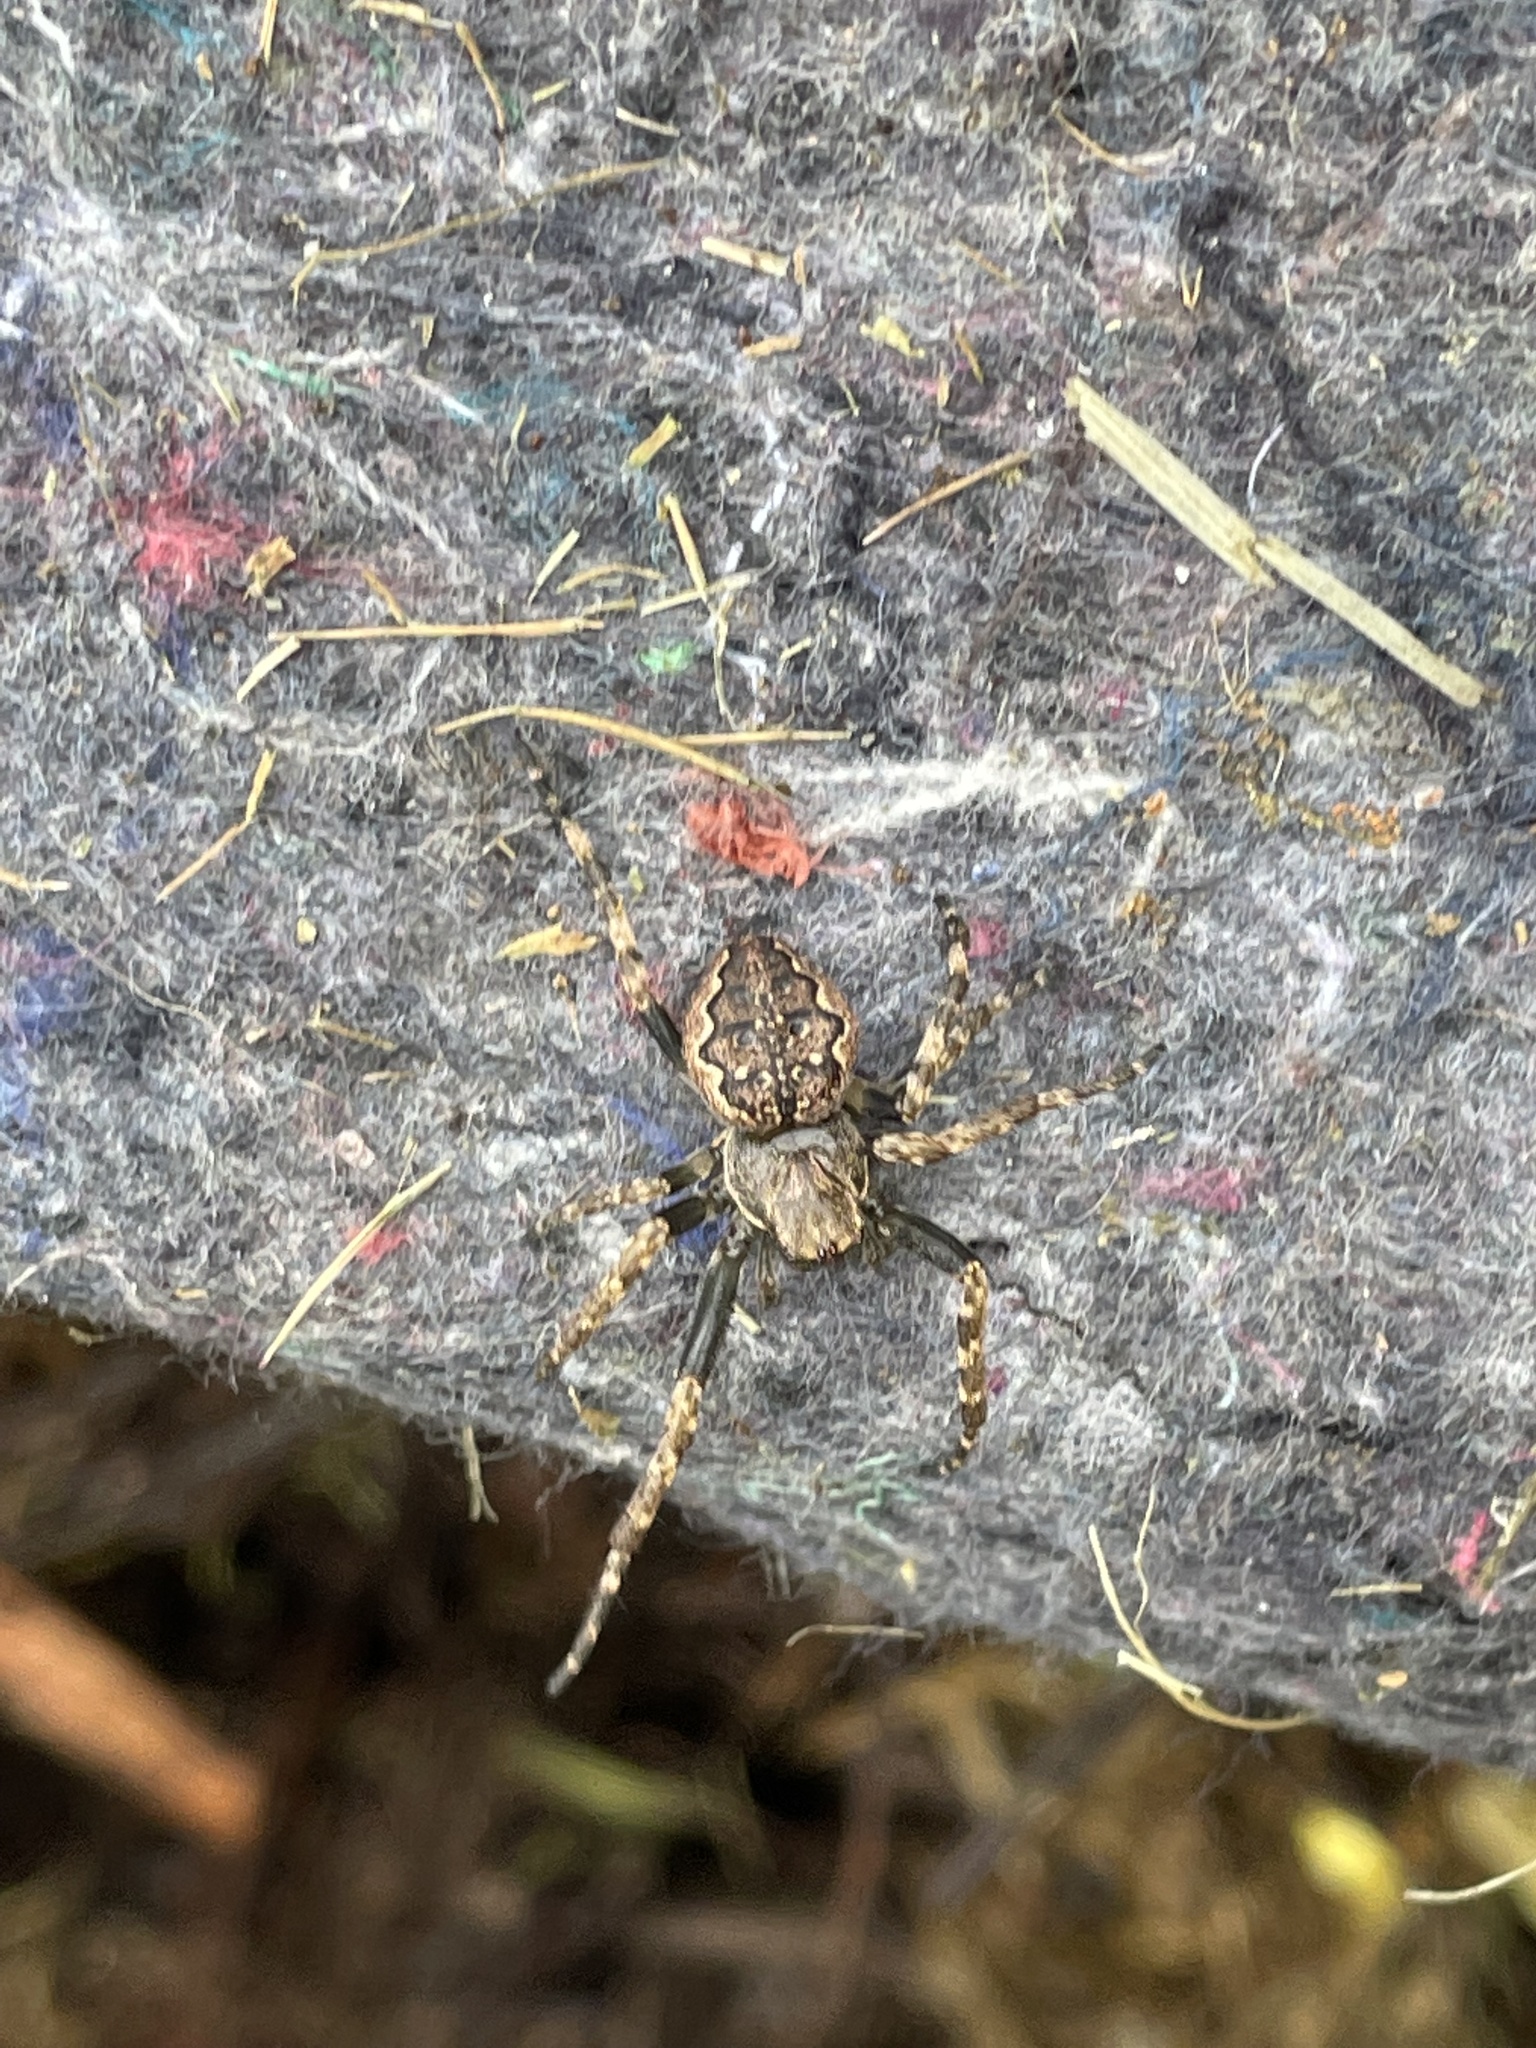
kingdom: Animalia
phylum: Arthropoda
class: Arachnida
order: Araneae
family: Araneidae
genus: Nuctenea
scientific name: Nuctenea umbratica
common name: Toad spider
